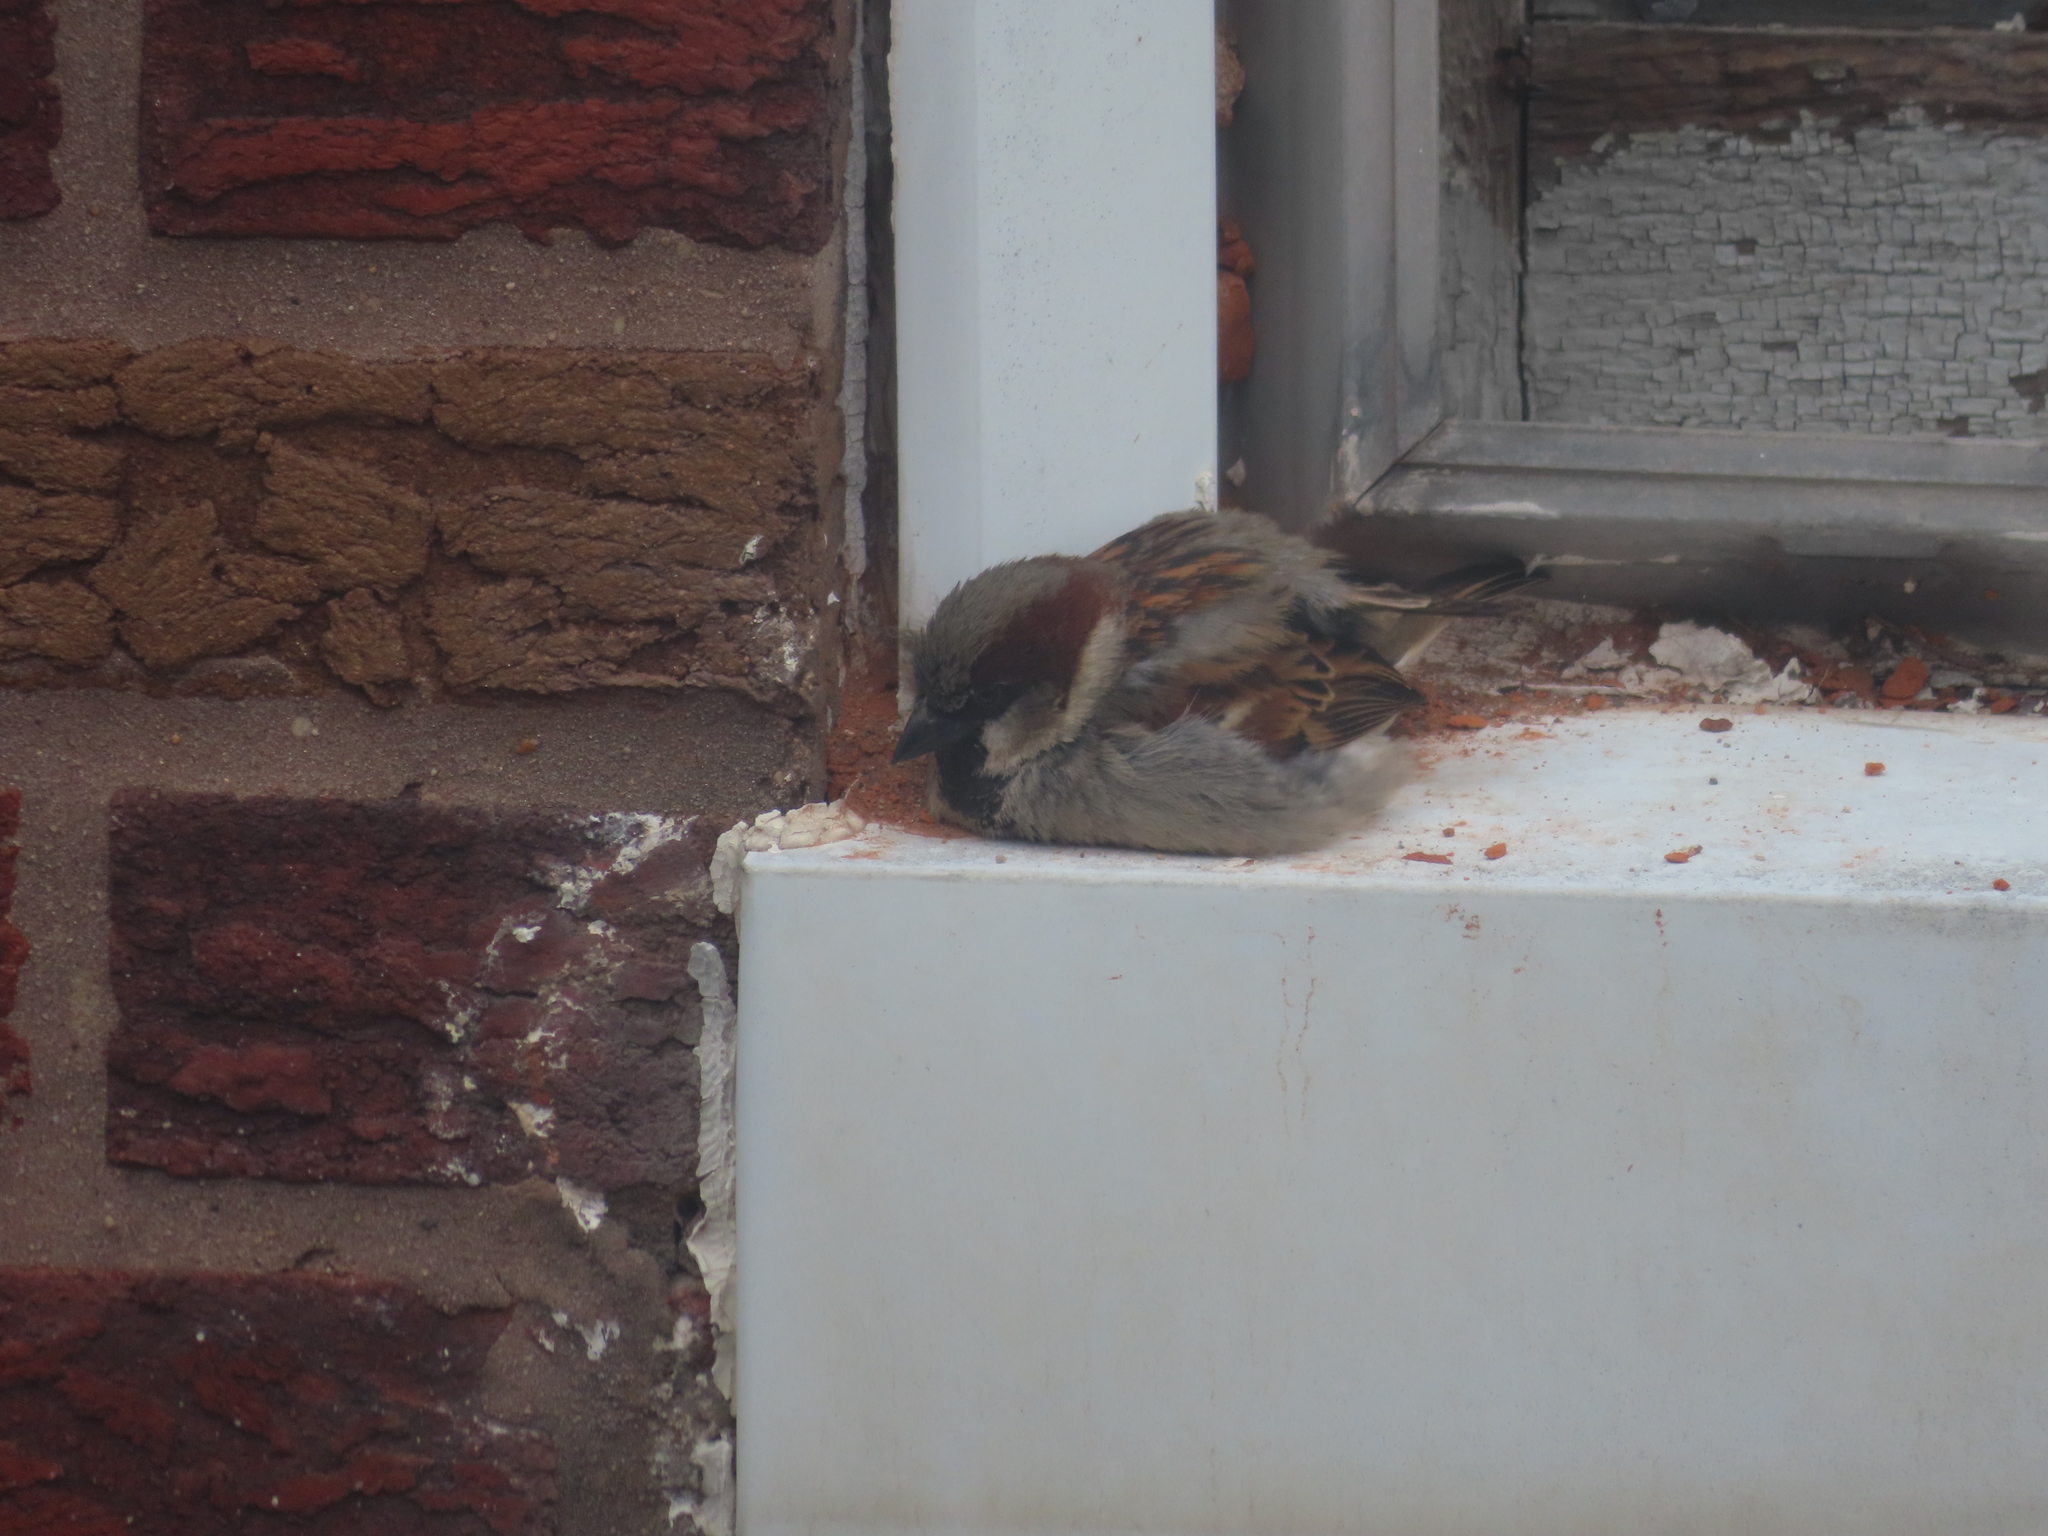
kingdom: Animalia
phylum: Chordata
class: Aves
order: Passeriformes
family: Passeridae
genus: Passer
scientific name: Passer domesticus
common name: House sparrow
